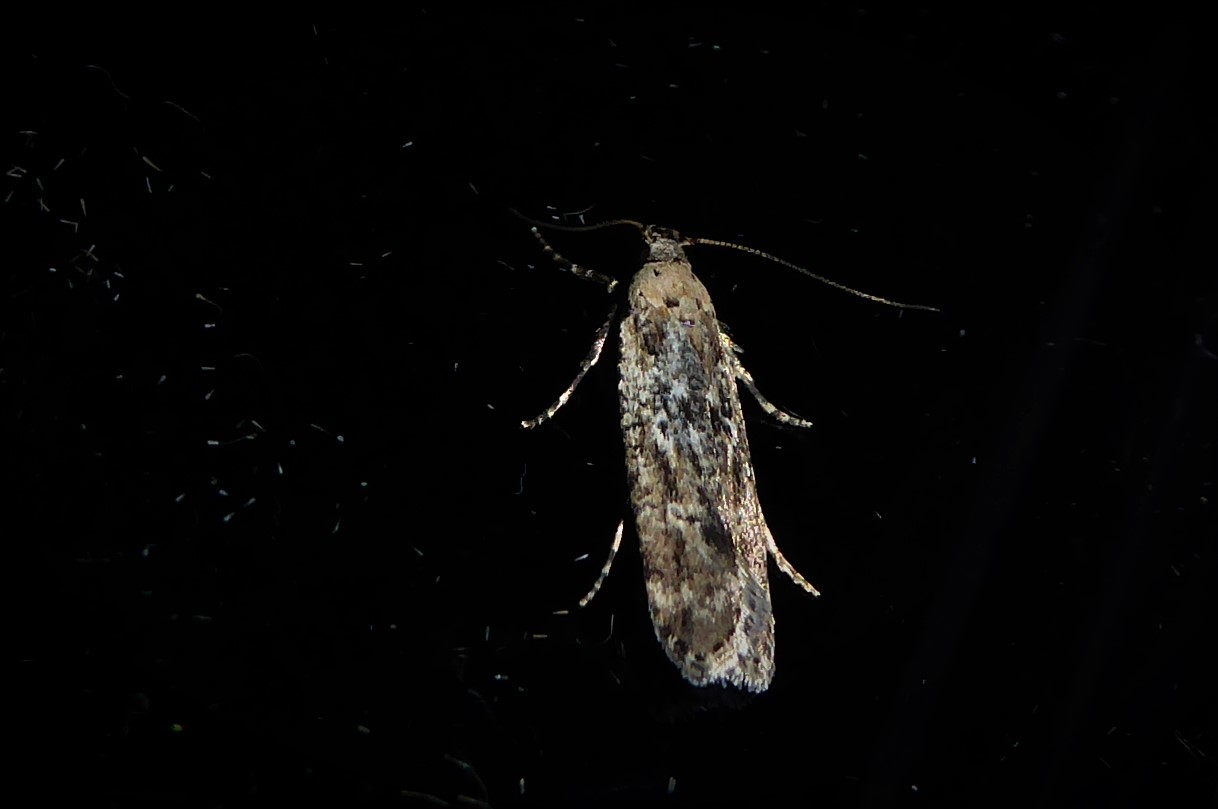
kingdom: Animalia
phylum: Arthropoda
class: Insecta
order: Lepidoptera
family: Gelechiidae
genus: Anisoplaca
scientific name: Anisoplaca achyrota
